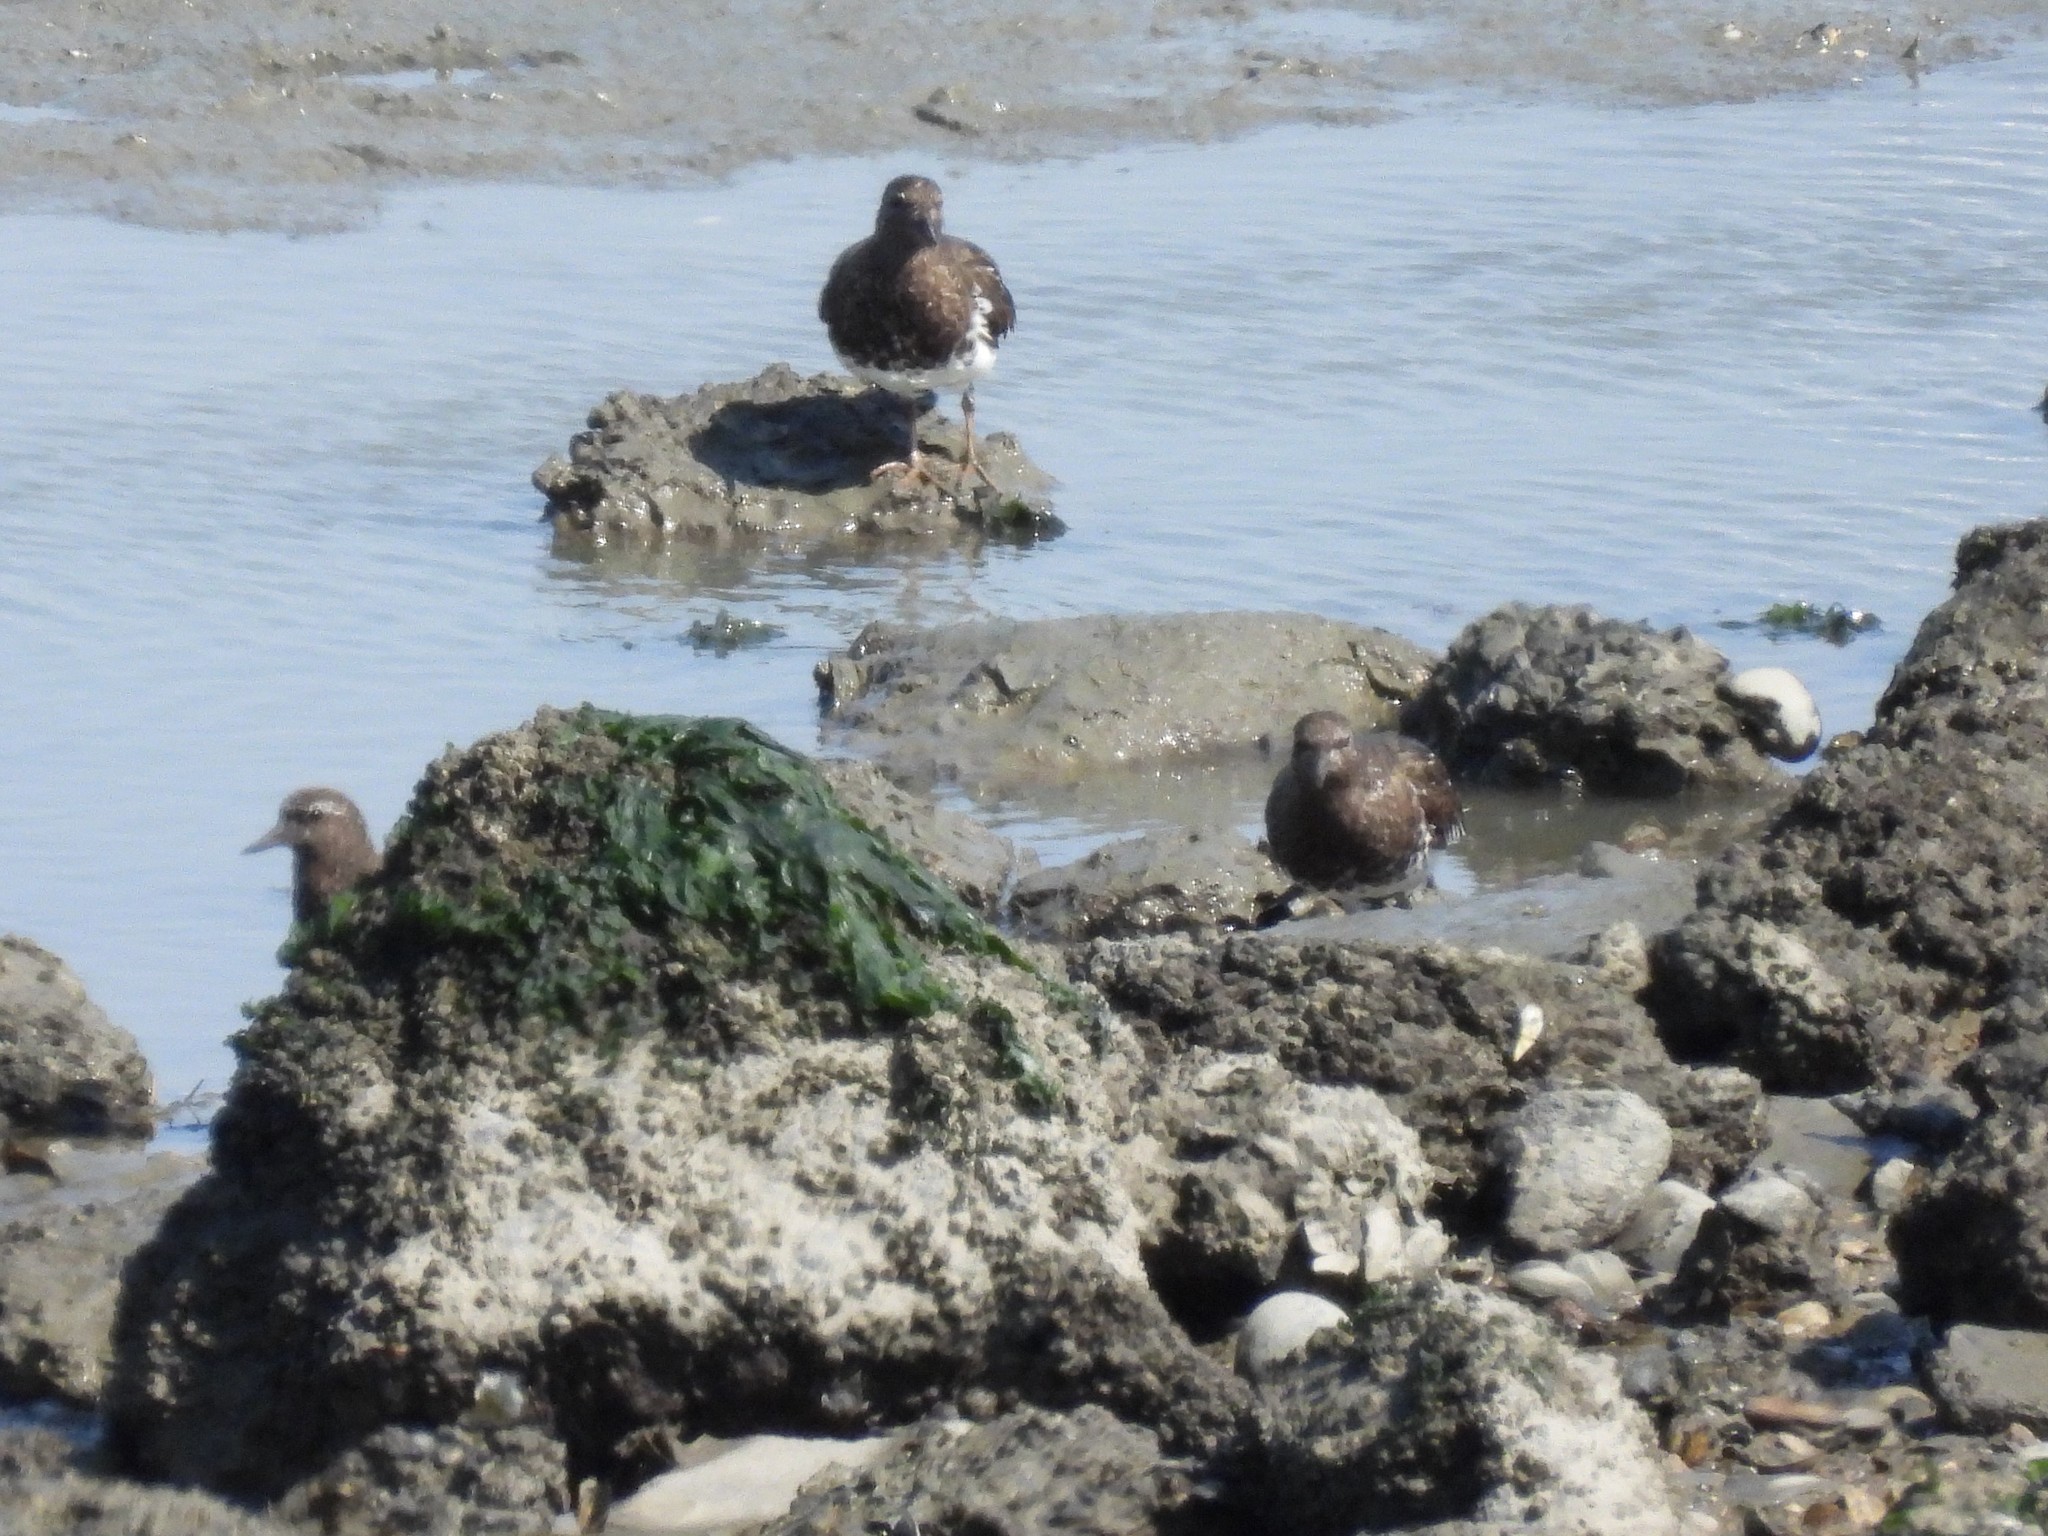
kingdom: Animalia
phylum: Chordata
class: Aves
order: Charadriiformes
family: Scolopacidae
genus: Arenaria
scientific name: Arenaria melanocephala
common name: Black turnstone
